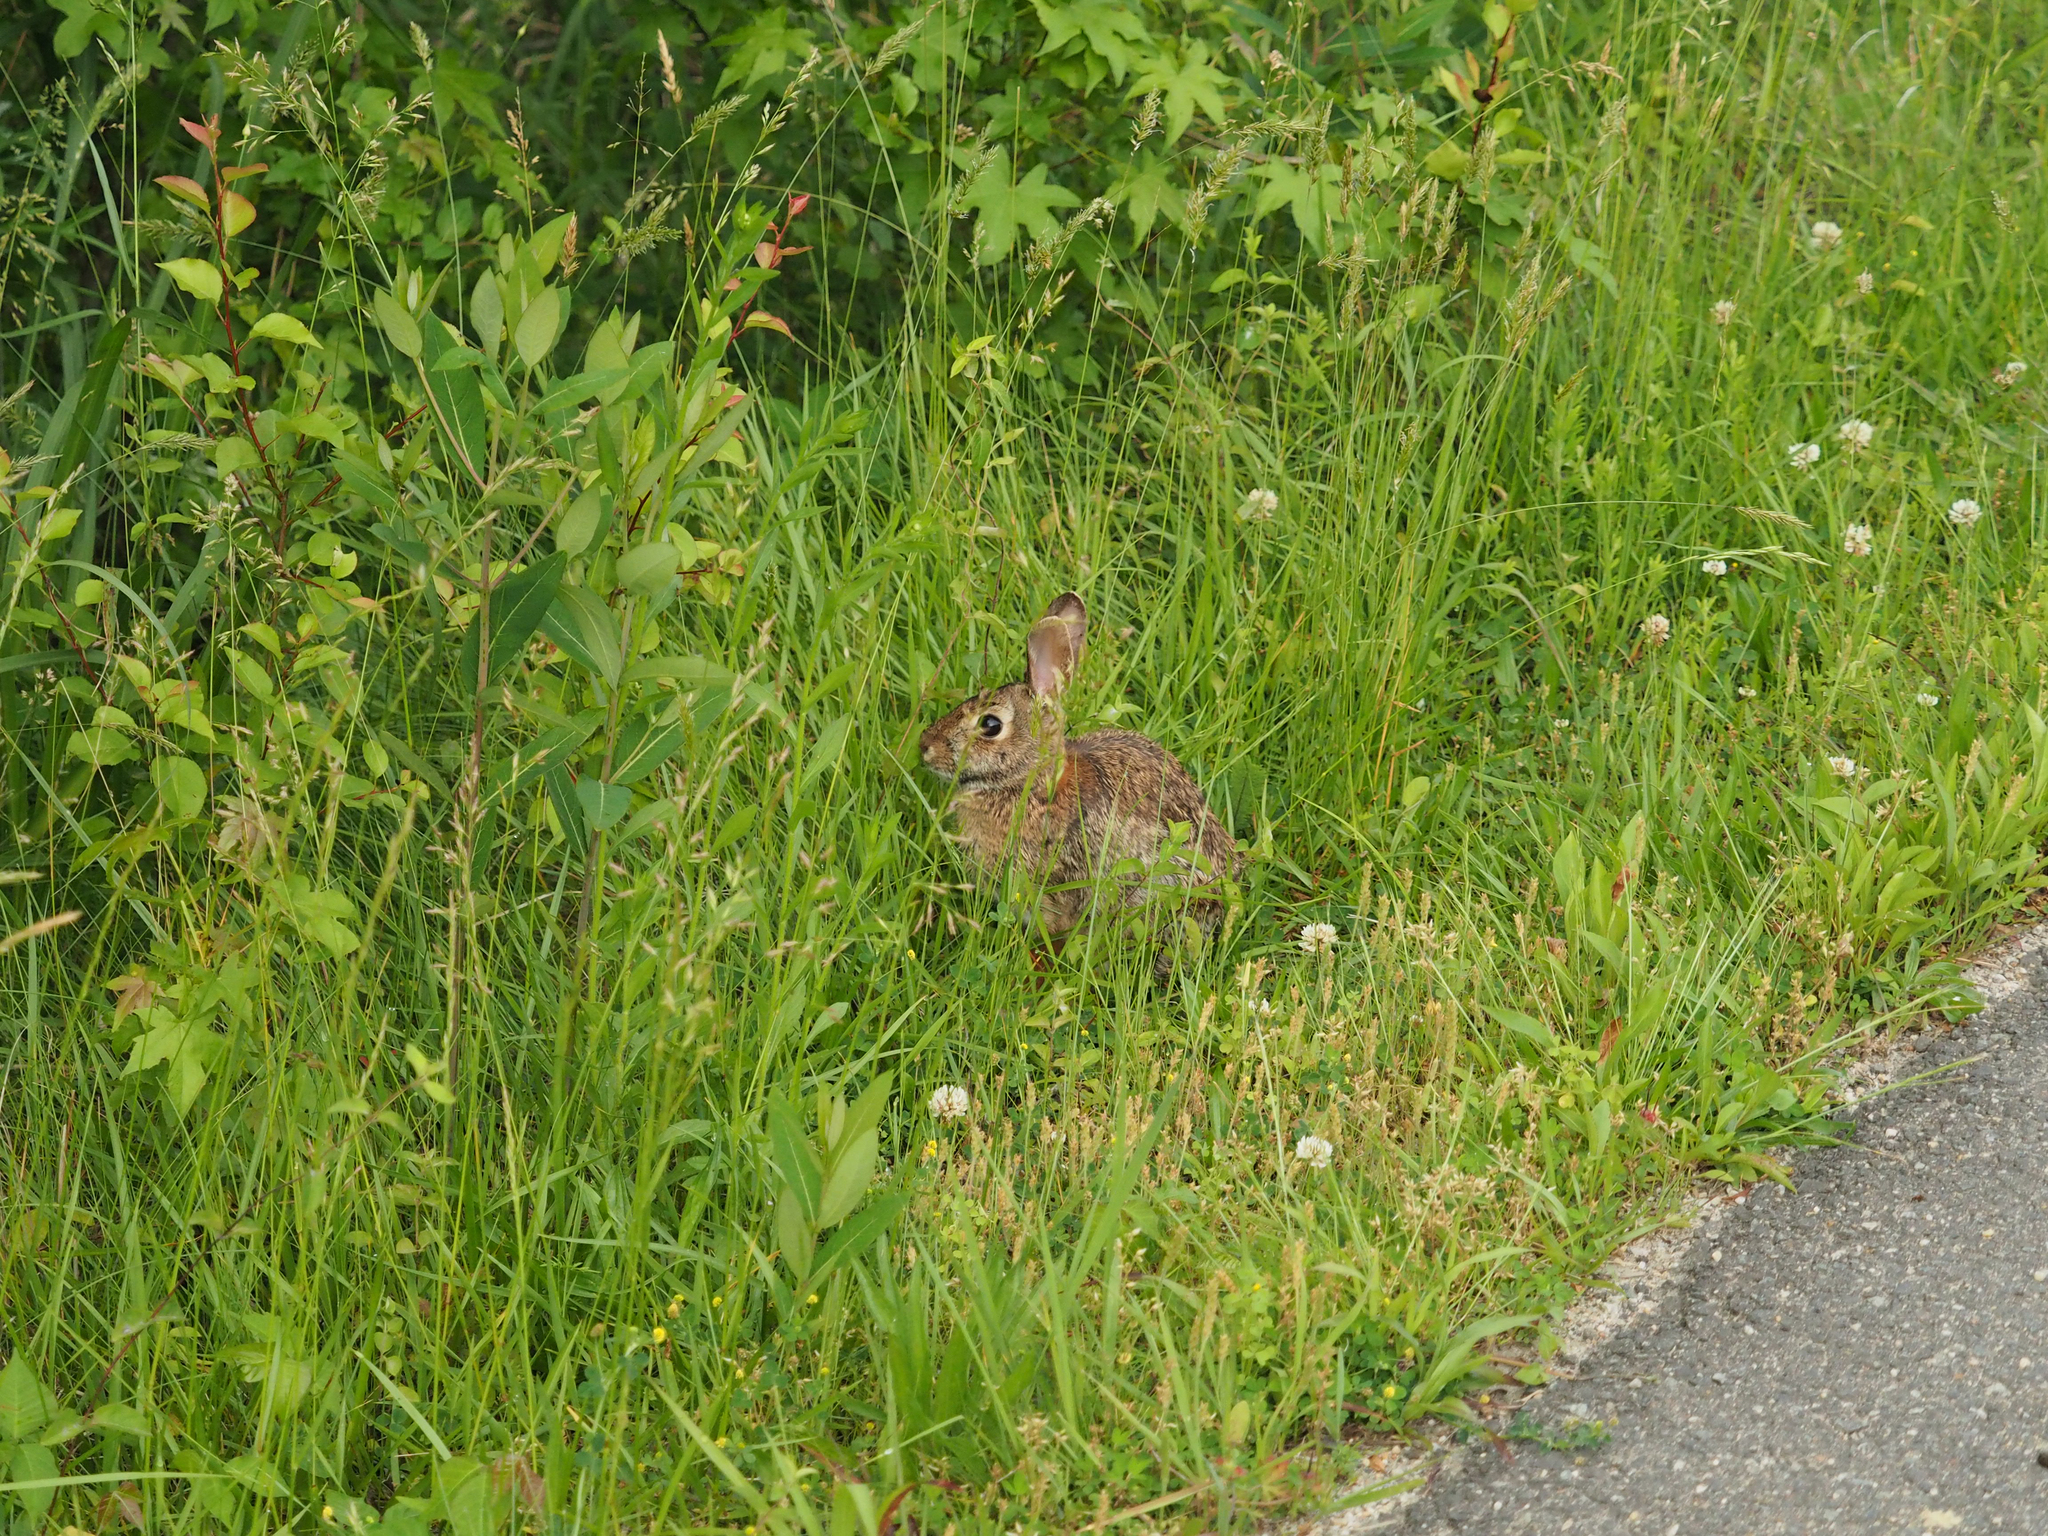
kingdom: Animalia
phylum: Chordata
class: Mammalia
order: Lagomorpha
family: Leporidae
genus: Sylvilagus
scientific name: Sylvilagus floridanus
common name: Eastern cottontail
